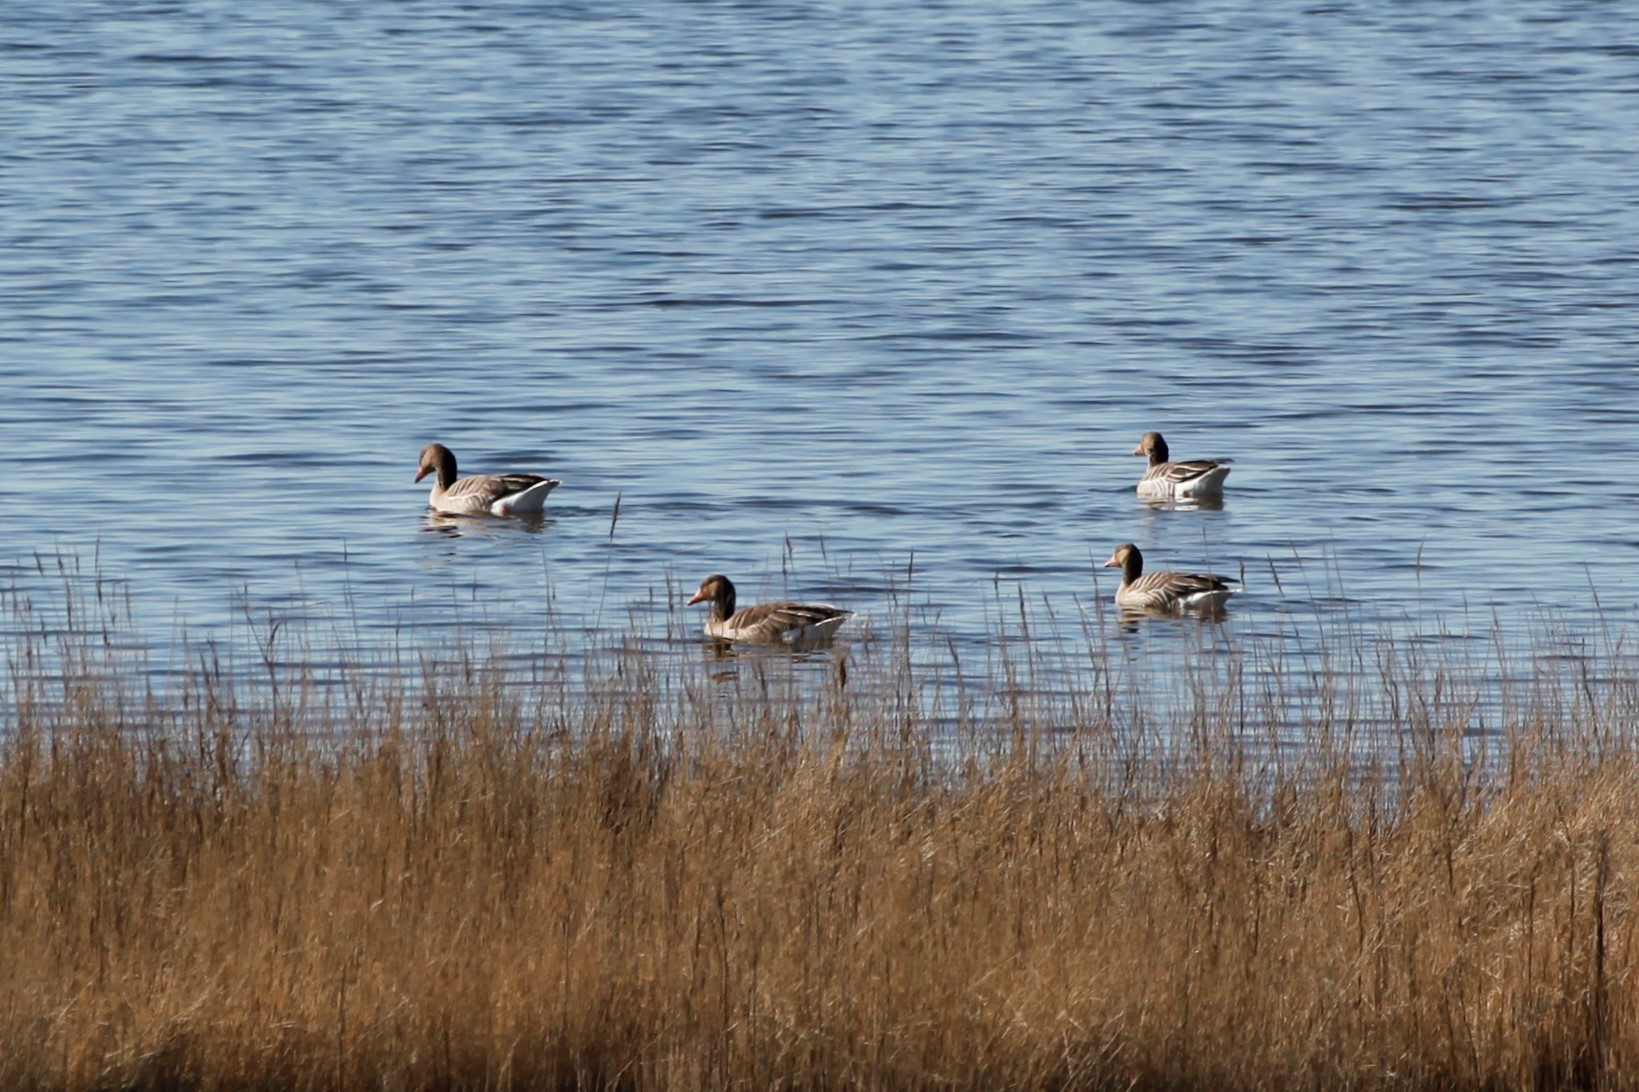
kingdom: Animalia
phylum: Chordata
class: Aves
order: Anseriformes
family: Anatidae
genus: Anser
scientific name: Anser anser
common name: Greylag goose
